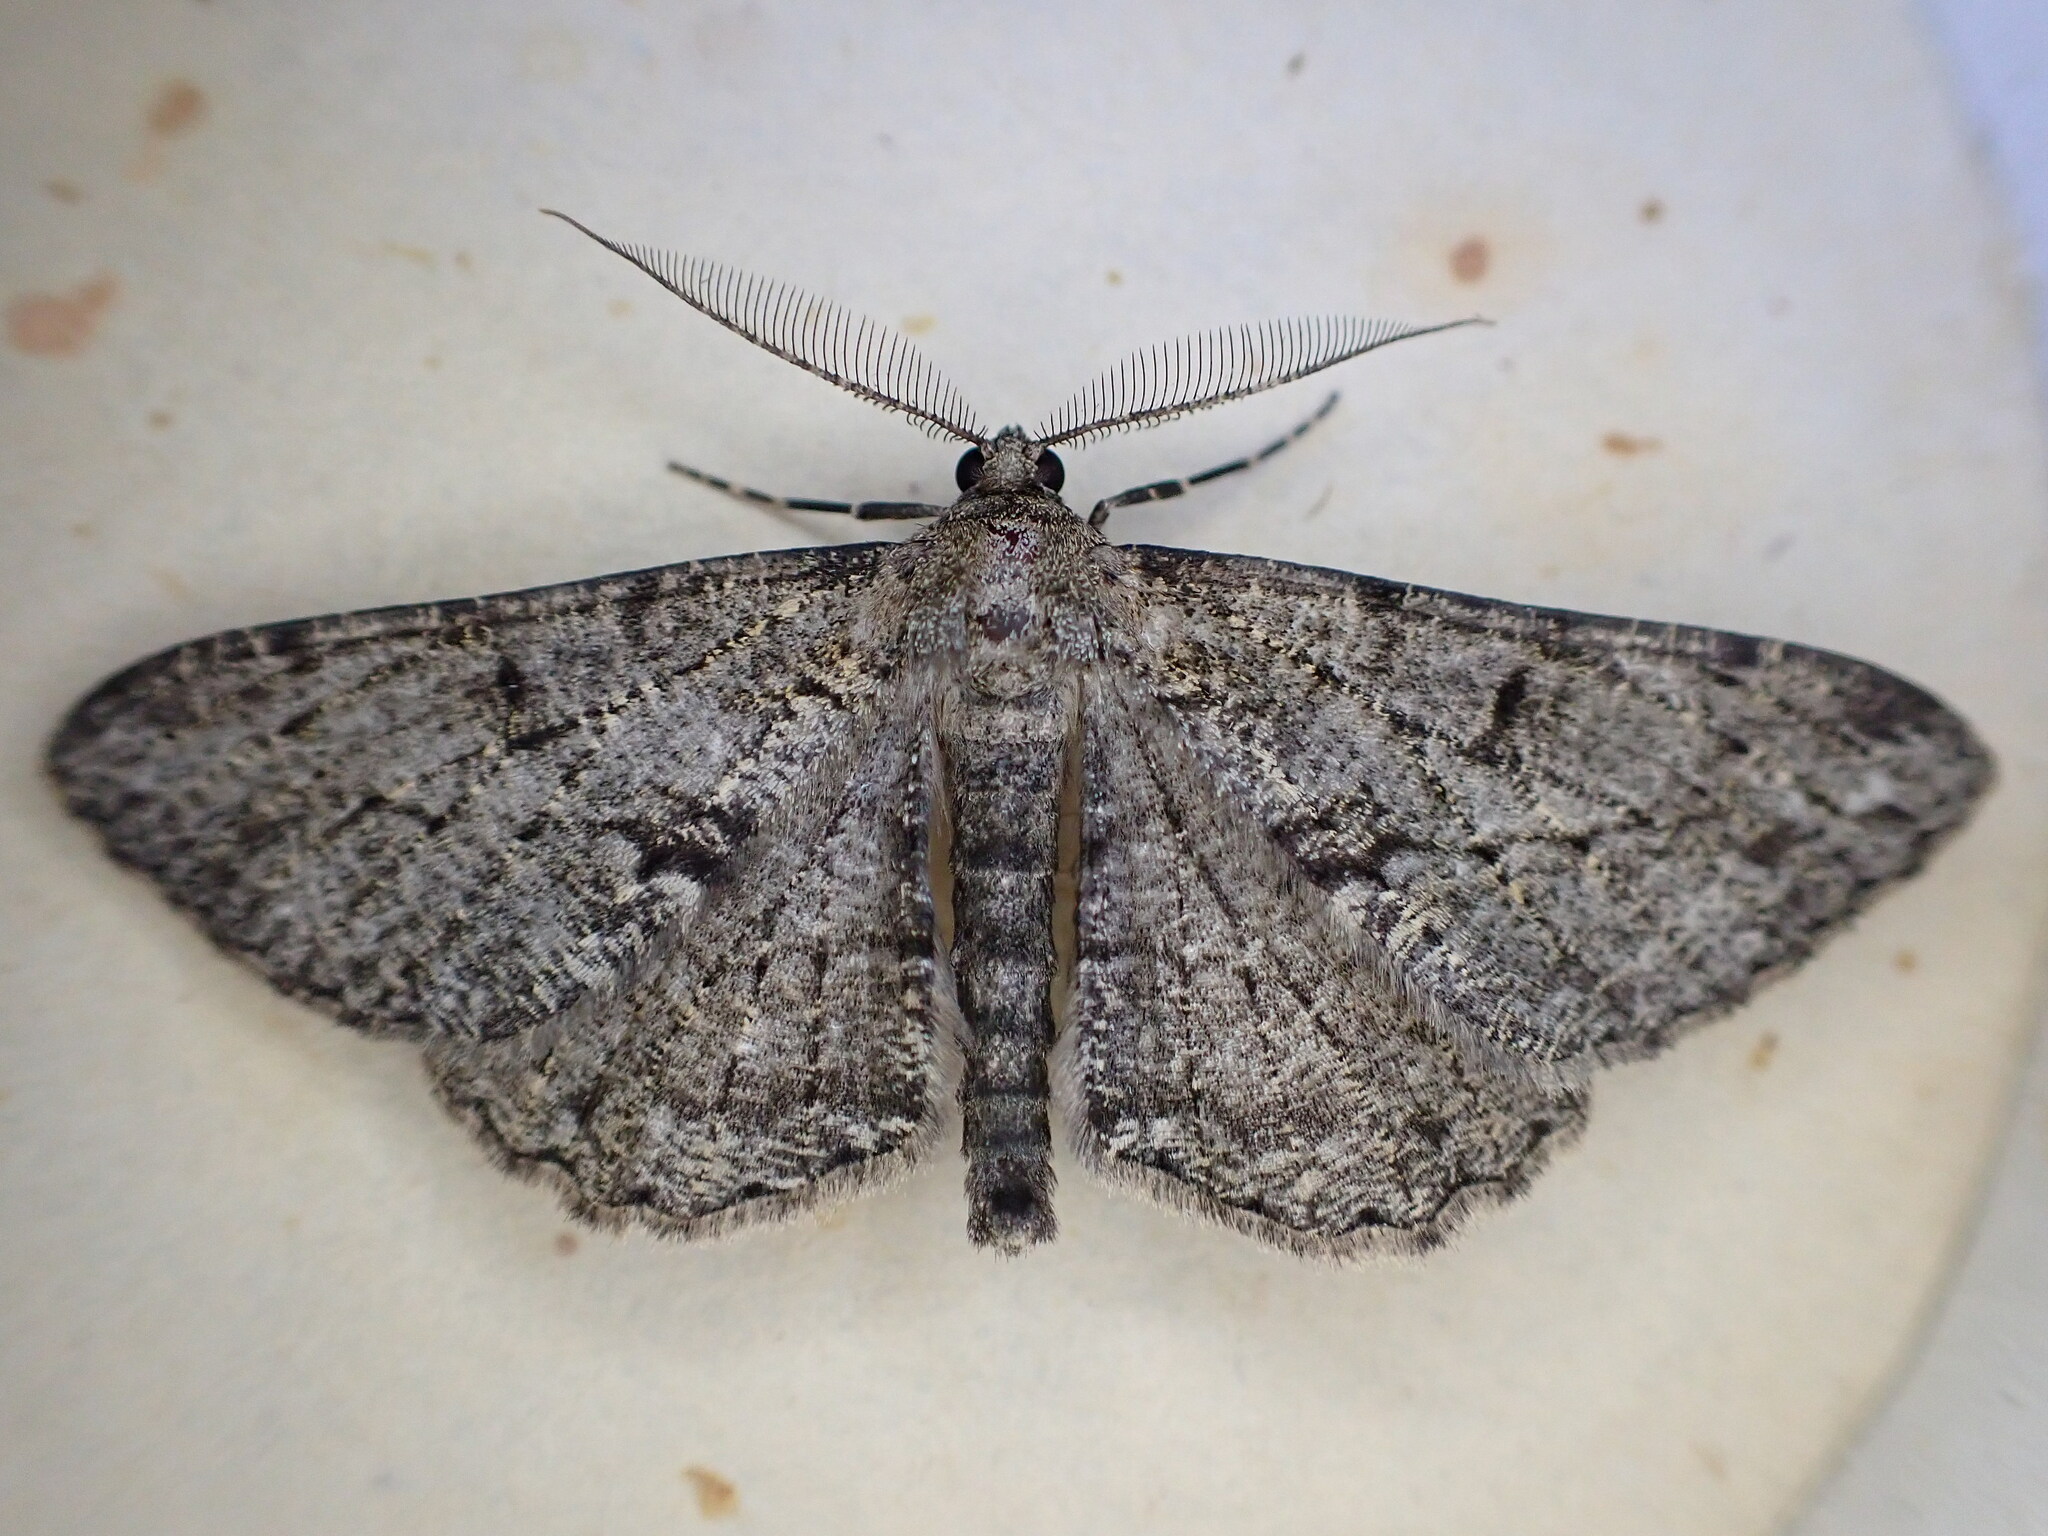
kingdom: Animalia
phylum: Arthropoda
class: Insecta
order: Lepidoptera
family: Geometridae
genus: Peribatodes
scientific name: Peribatodes rhomboidaria
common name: Willow beauty
